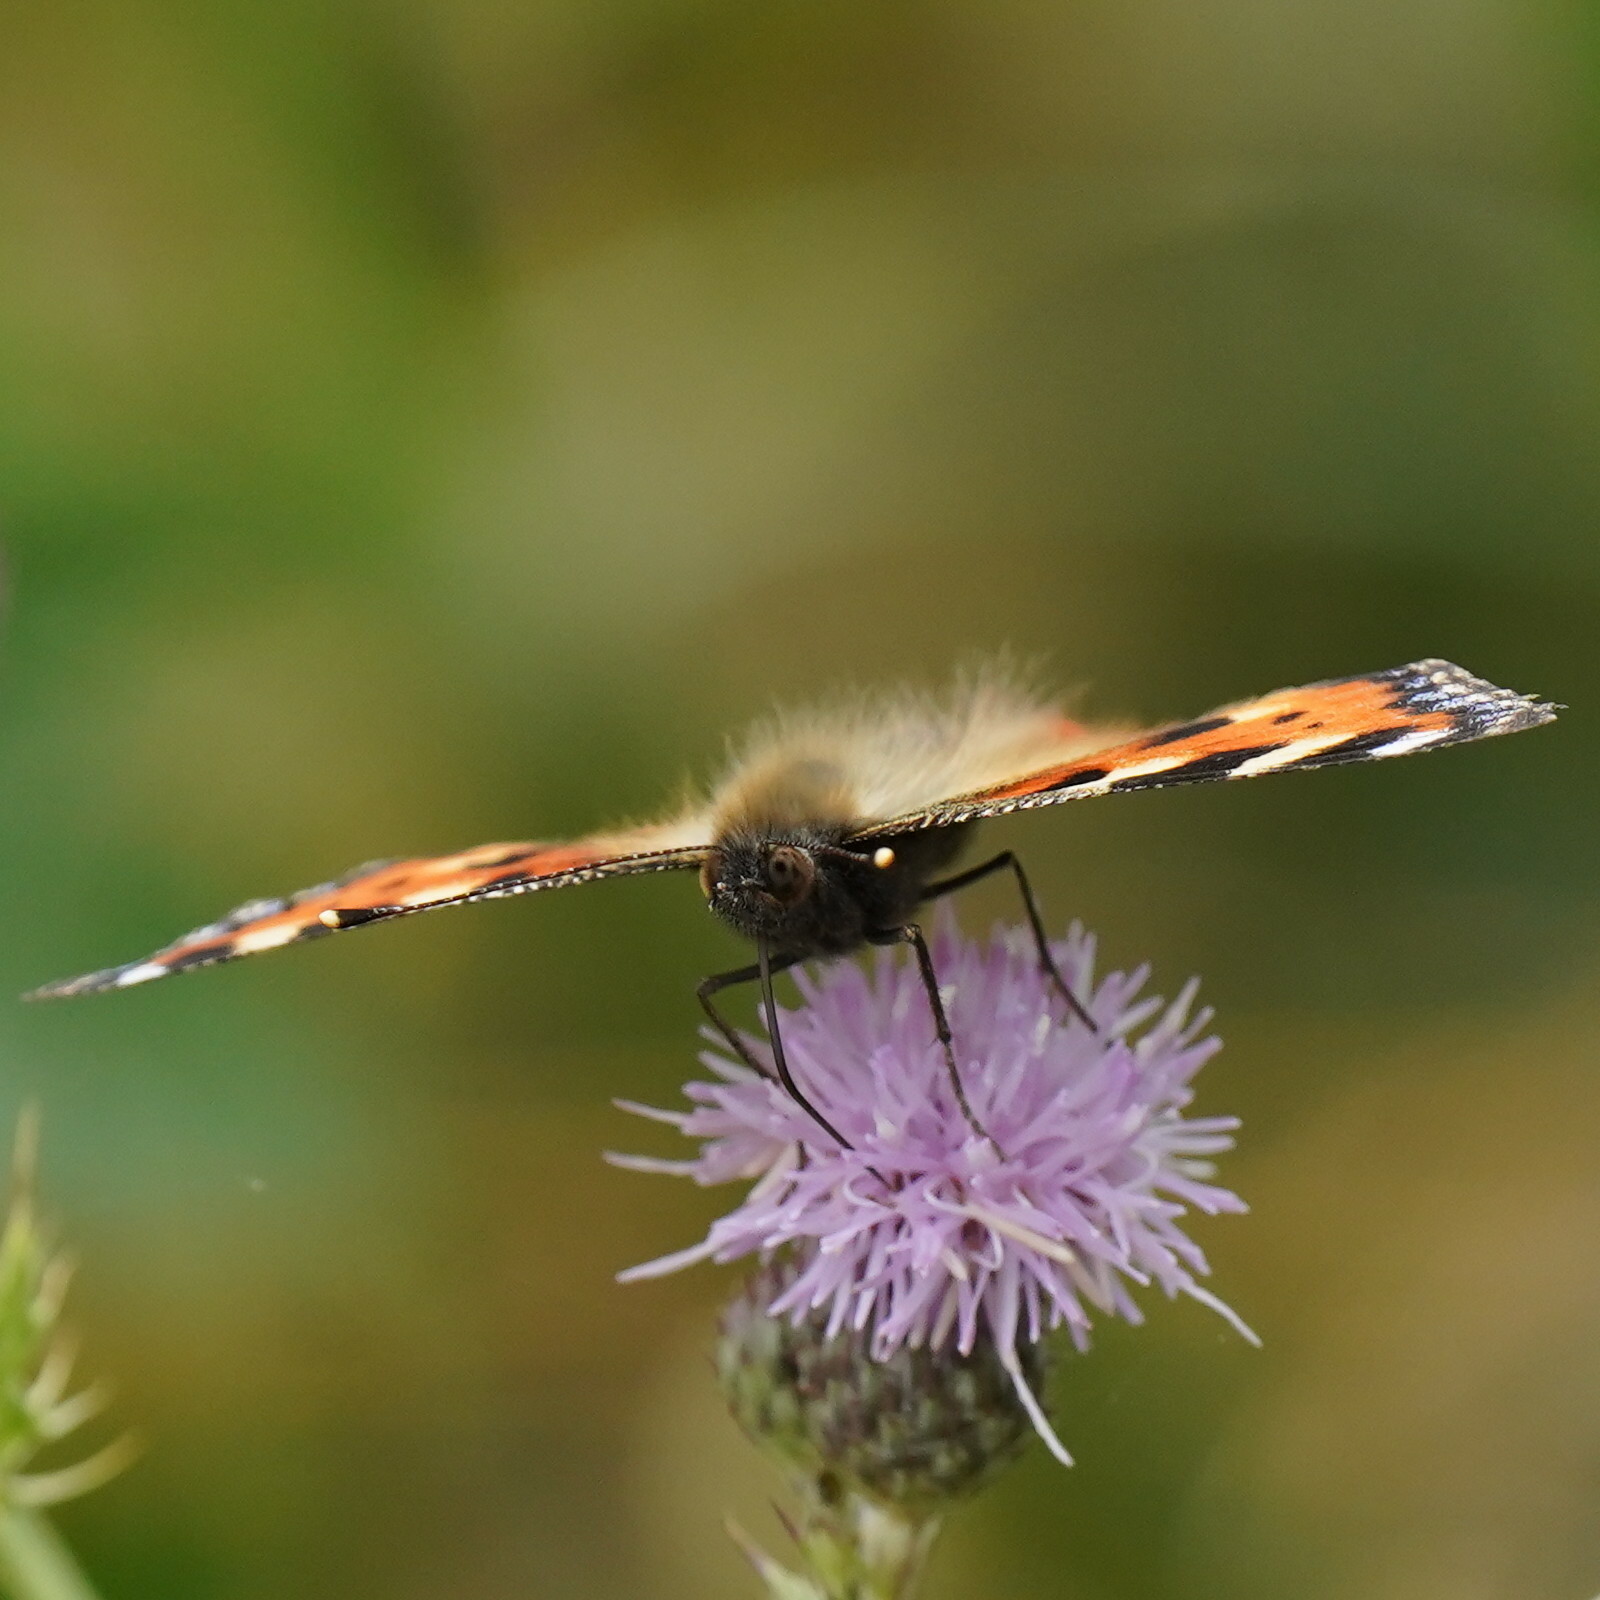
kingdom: Animalia
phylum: Arthropoda
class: Insecta
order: Lepidoptera
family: Nymphalidae
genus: Aglais
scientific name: Aglais urticae
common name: Small tortoiseshell
